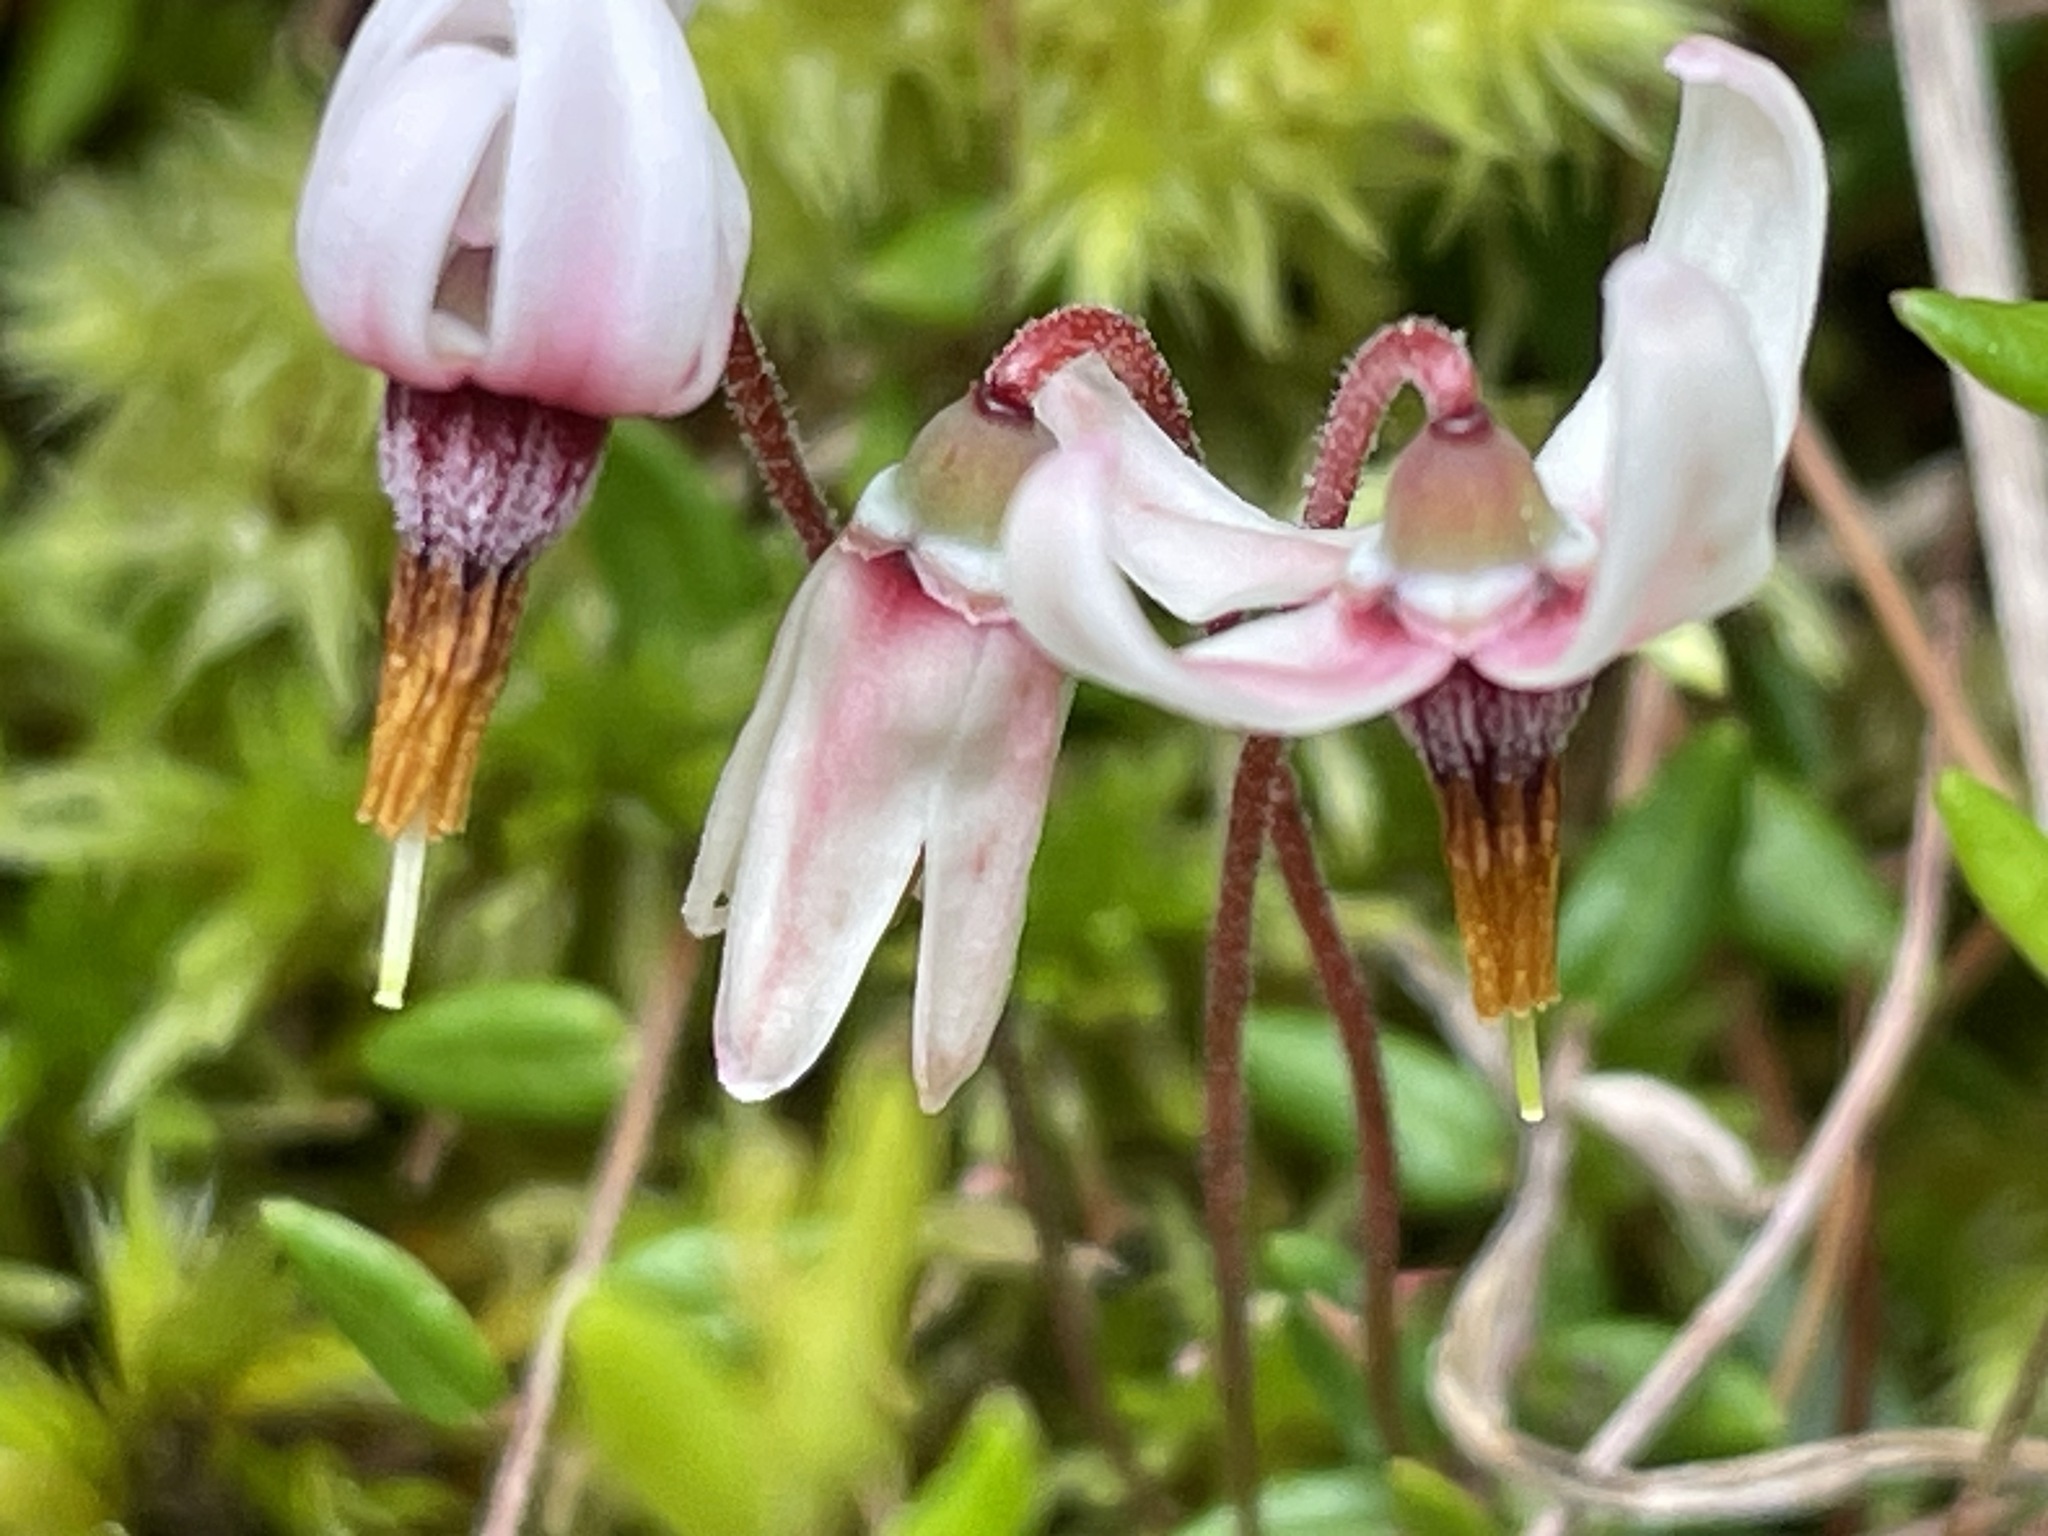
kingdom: Plantae
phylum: Tracheophyta
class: Magnoliopsida
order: Ericales
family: Ericaceae
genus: Vaccinium
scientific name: Vaccinium oxycoccos
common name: Cranberry
